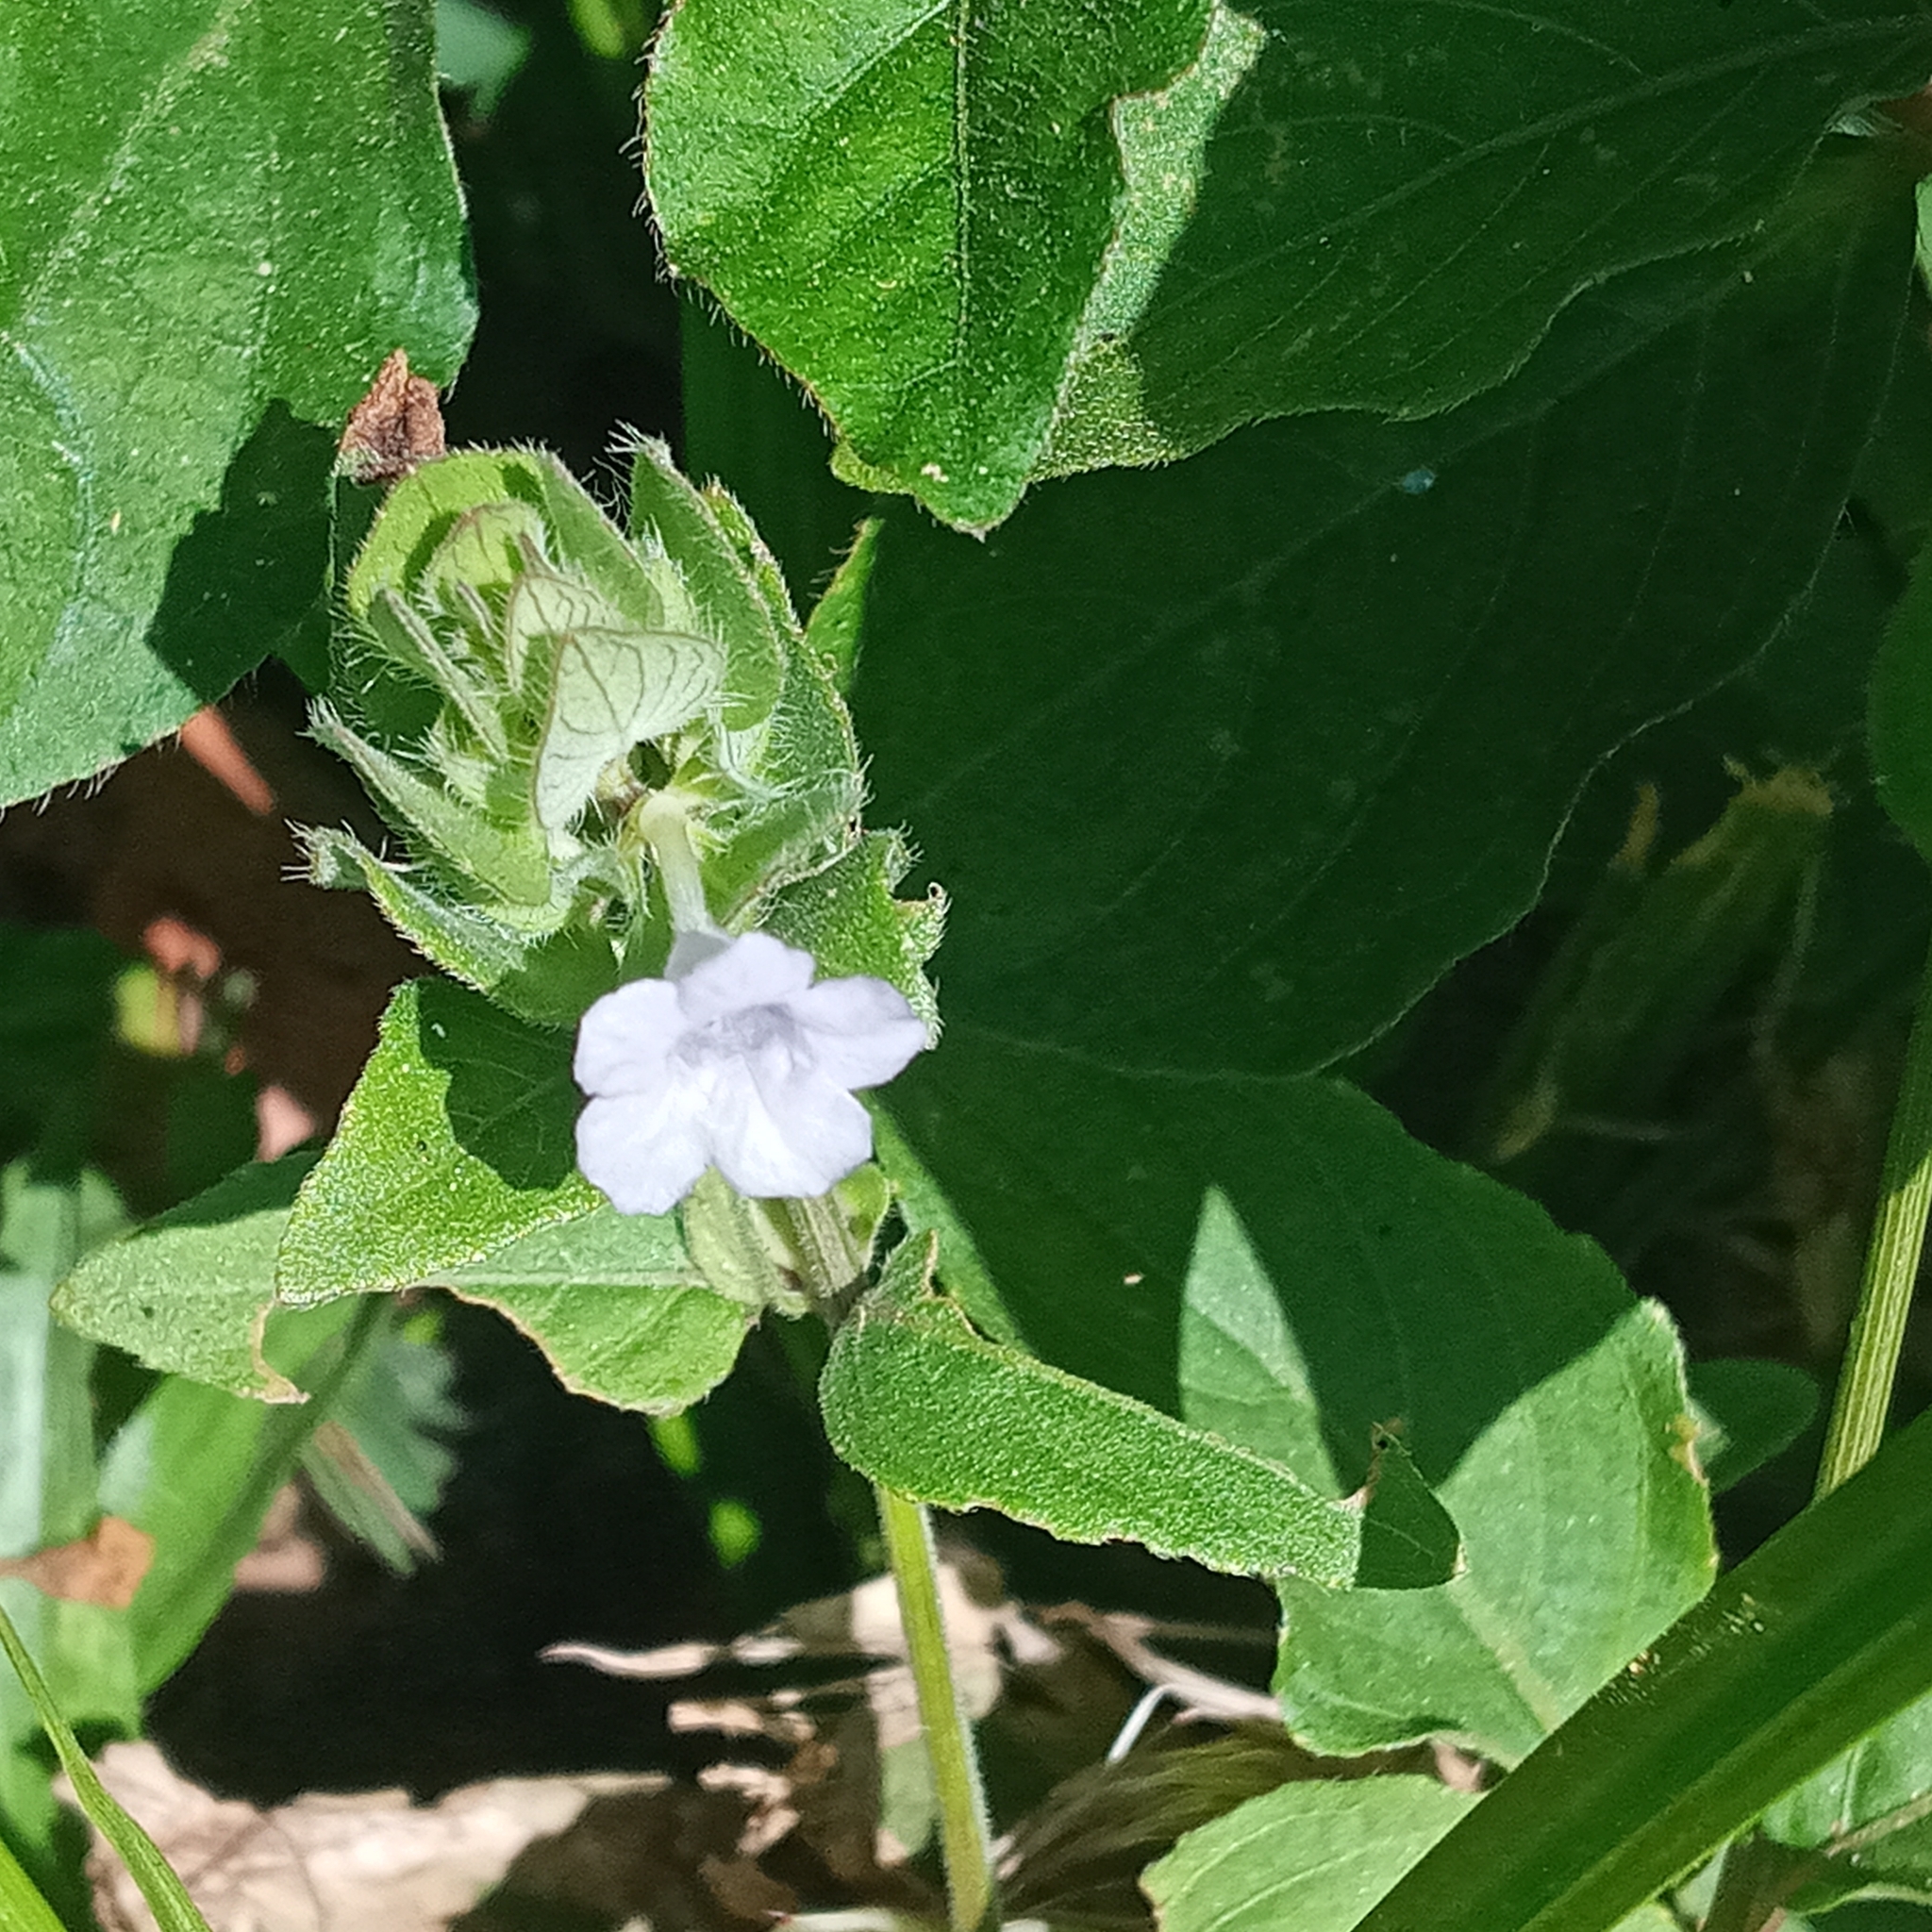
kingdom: Plantae
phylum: Tracheophyta
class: Magnoliopsida
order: Lamiales
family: Acanthaceae
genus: Ruellia
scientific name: Ruellia blechum
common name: Browne's blechum
